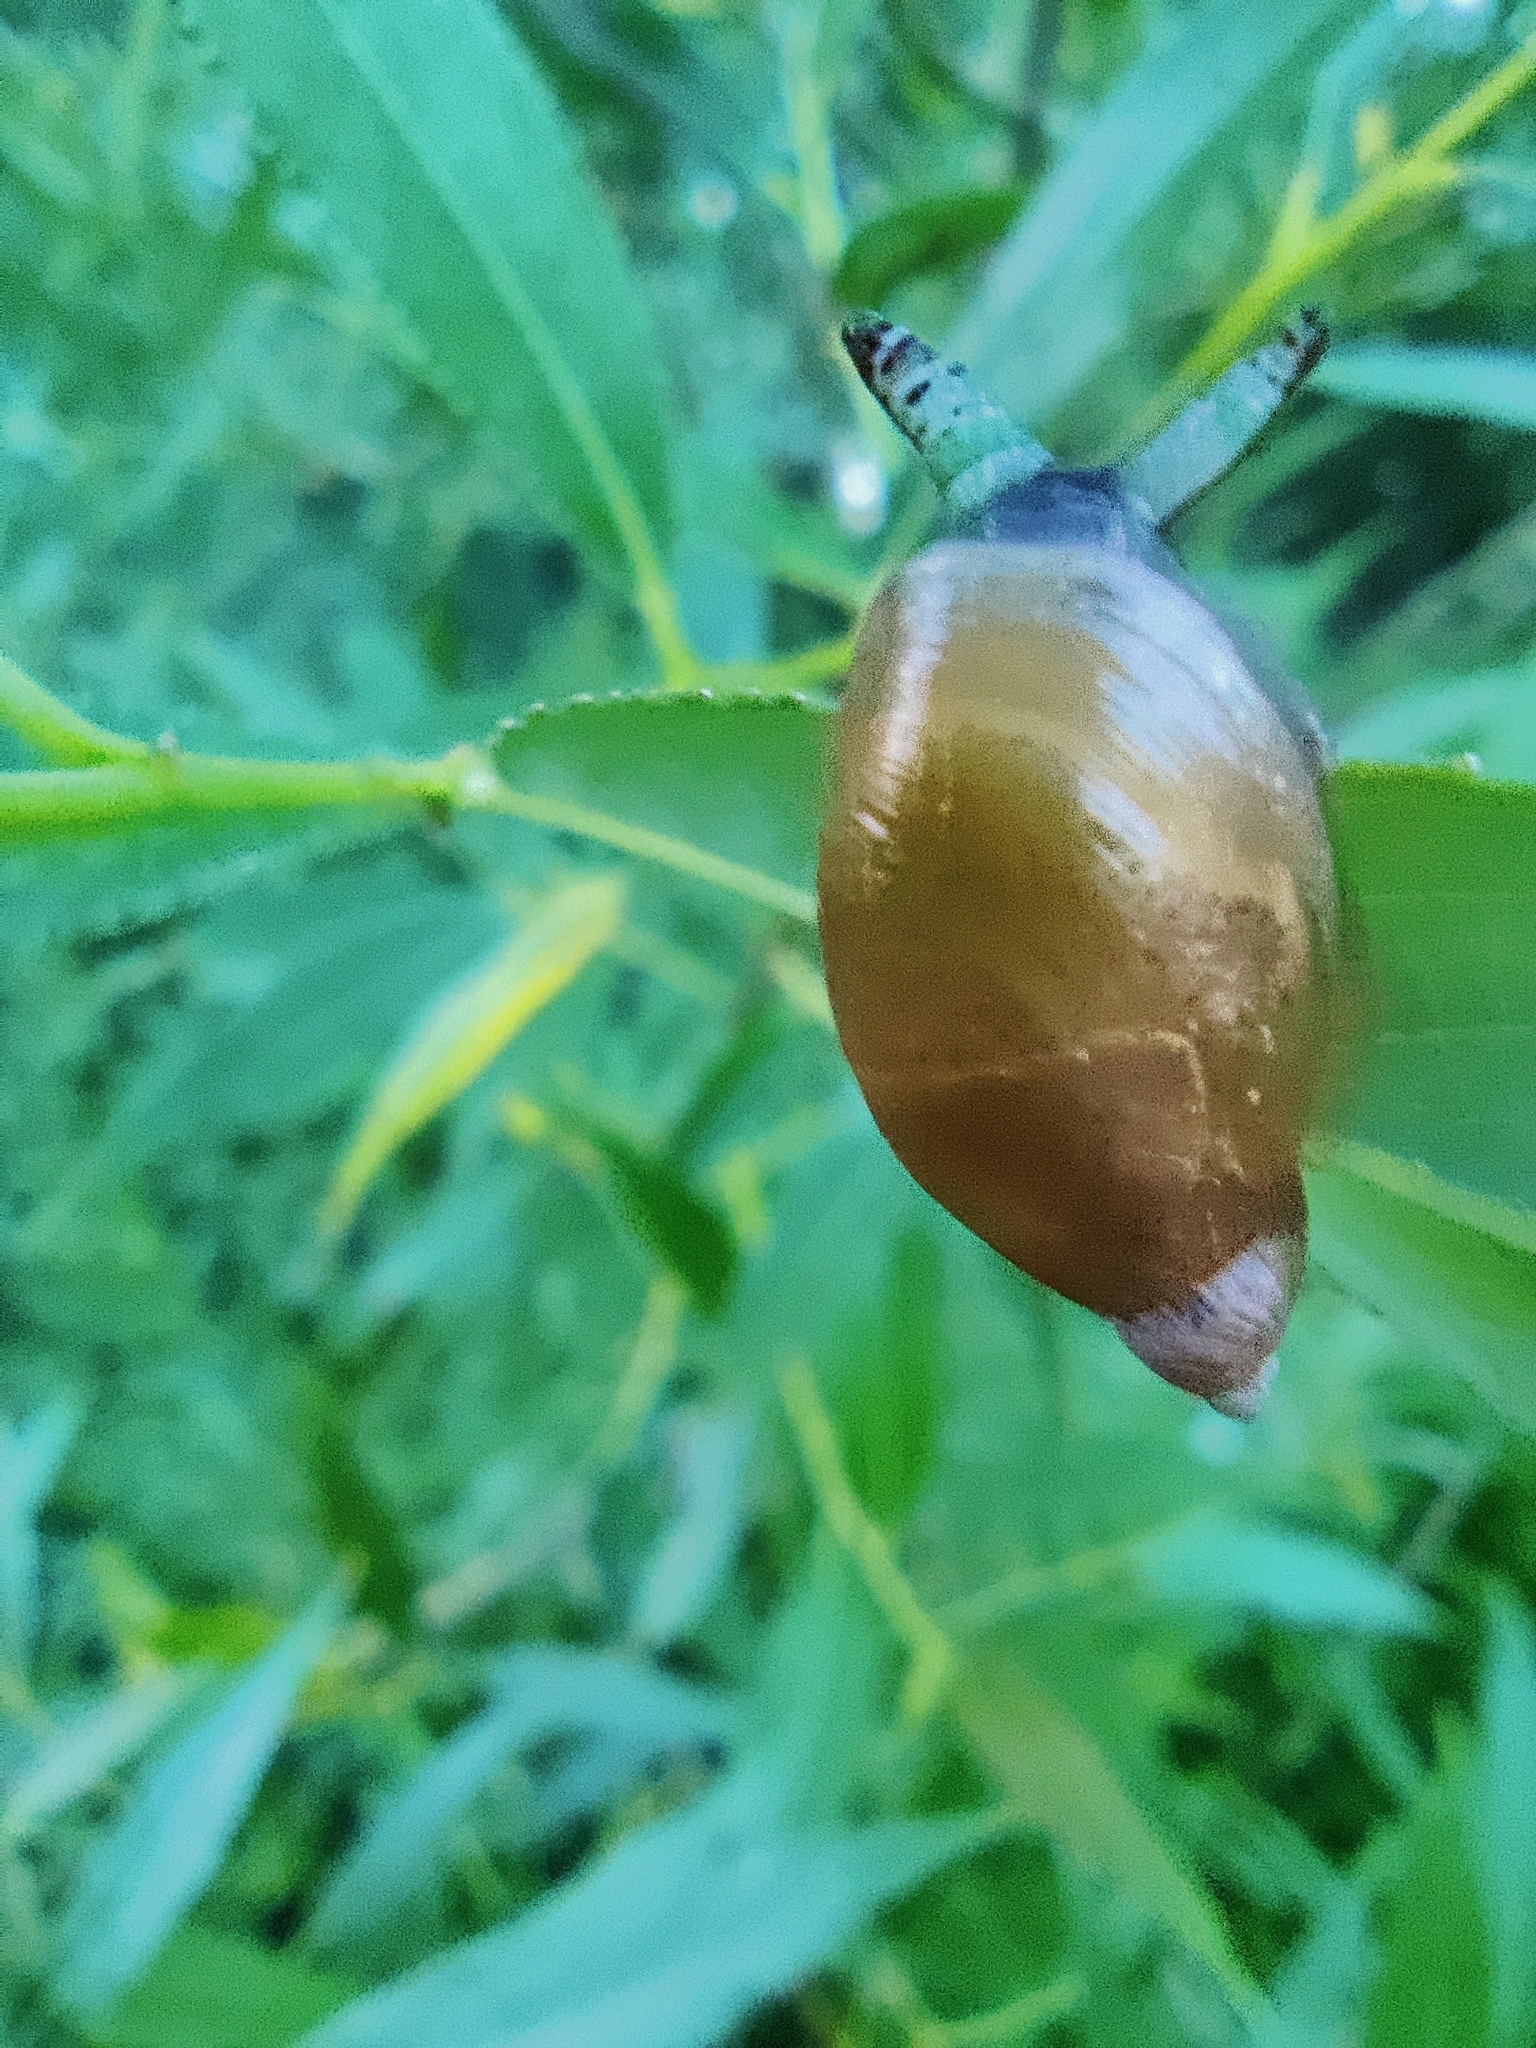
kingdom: Animalia
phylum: Platyhelminthes
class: Trematoda
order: Diplostomida
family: Leucochloridiidae
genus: Leucochloridium
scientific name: Leucochloridium paradoxum
